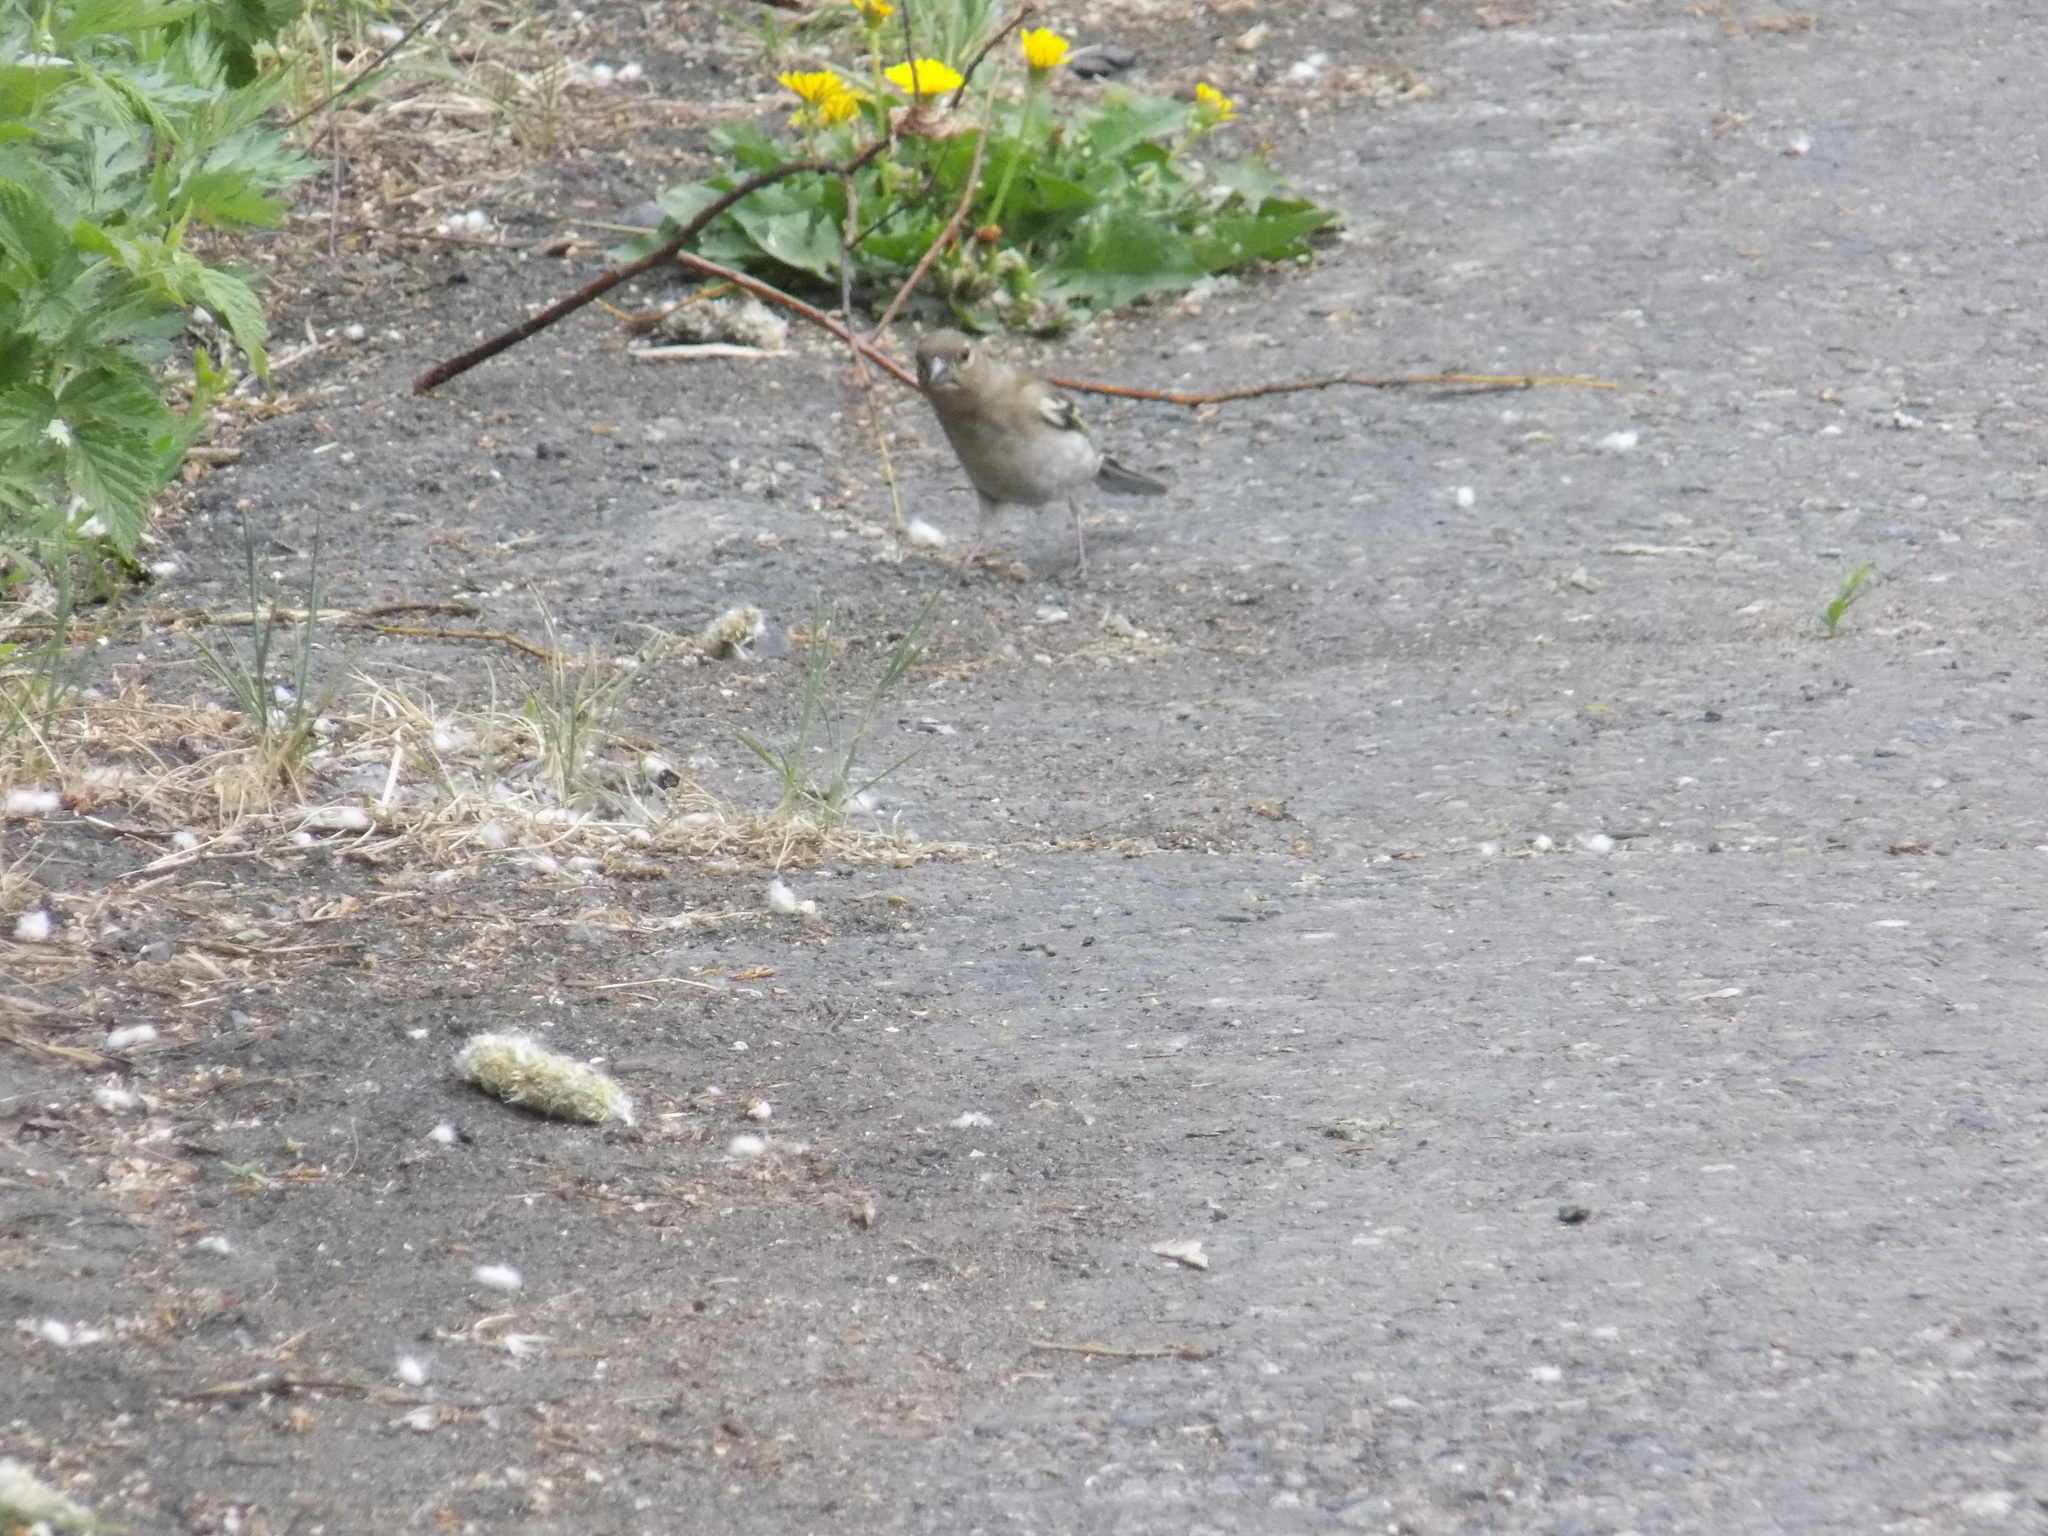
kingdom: Animalia
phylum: Chordata
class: Aves
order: Passeriformes
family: Fringillidae
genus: Fringilla
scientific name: Fringilla coelebs
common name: Common chaffinch
